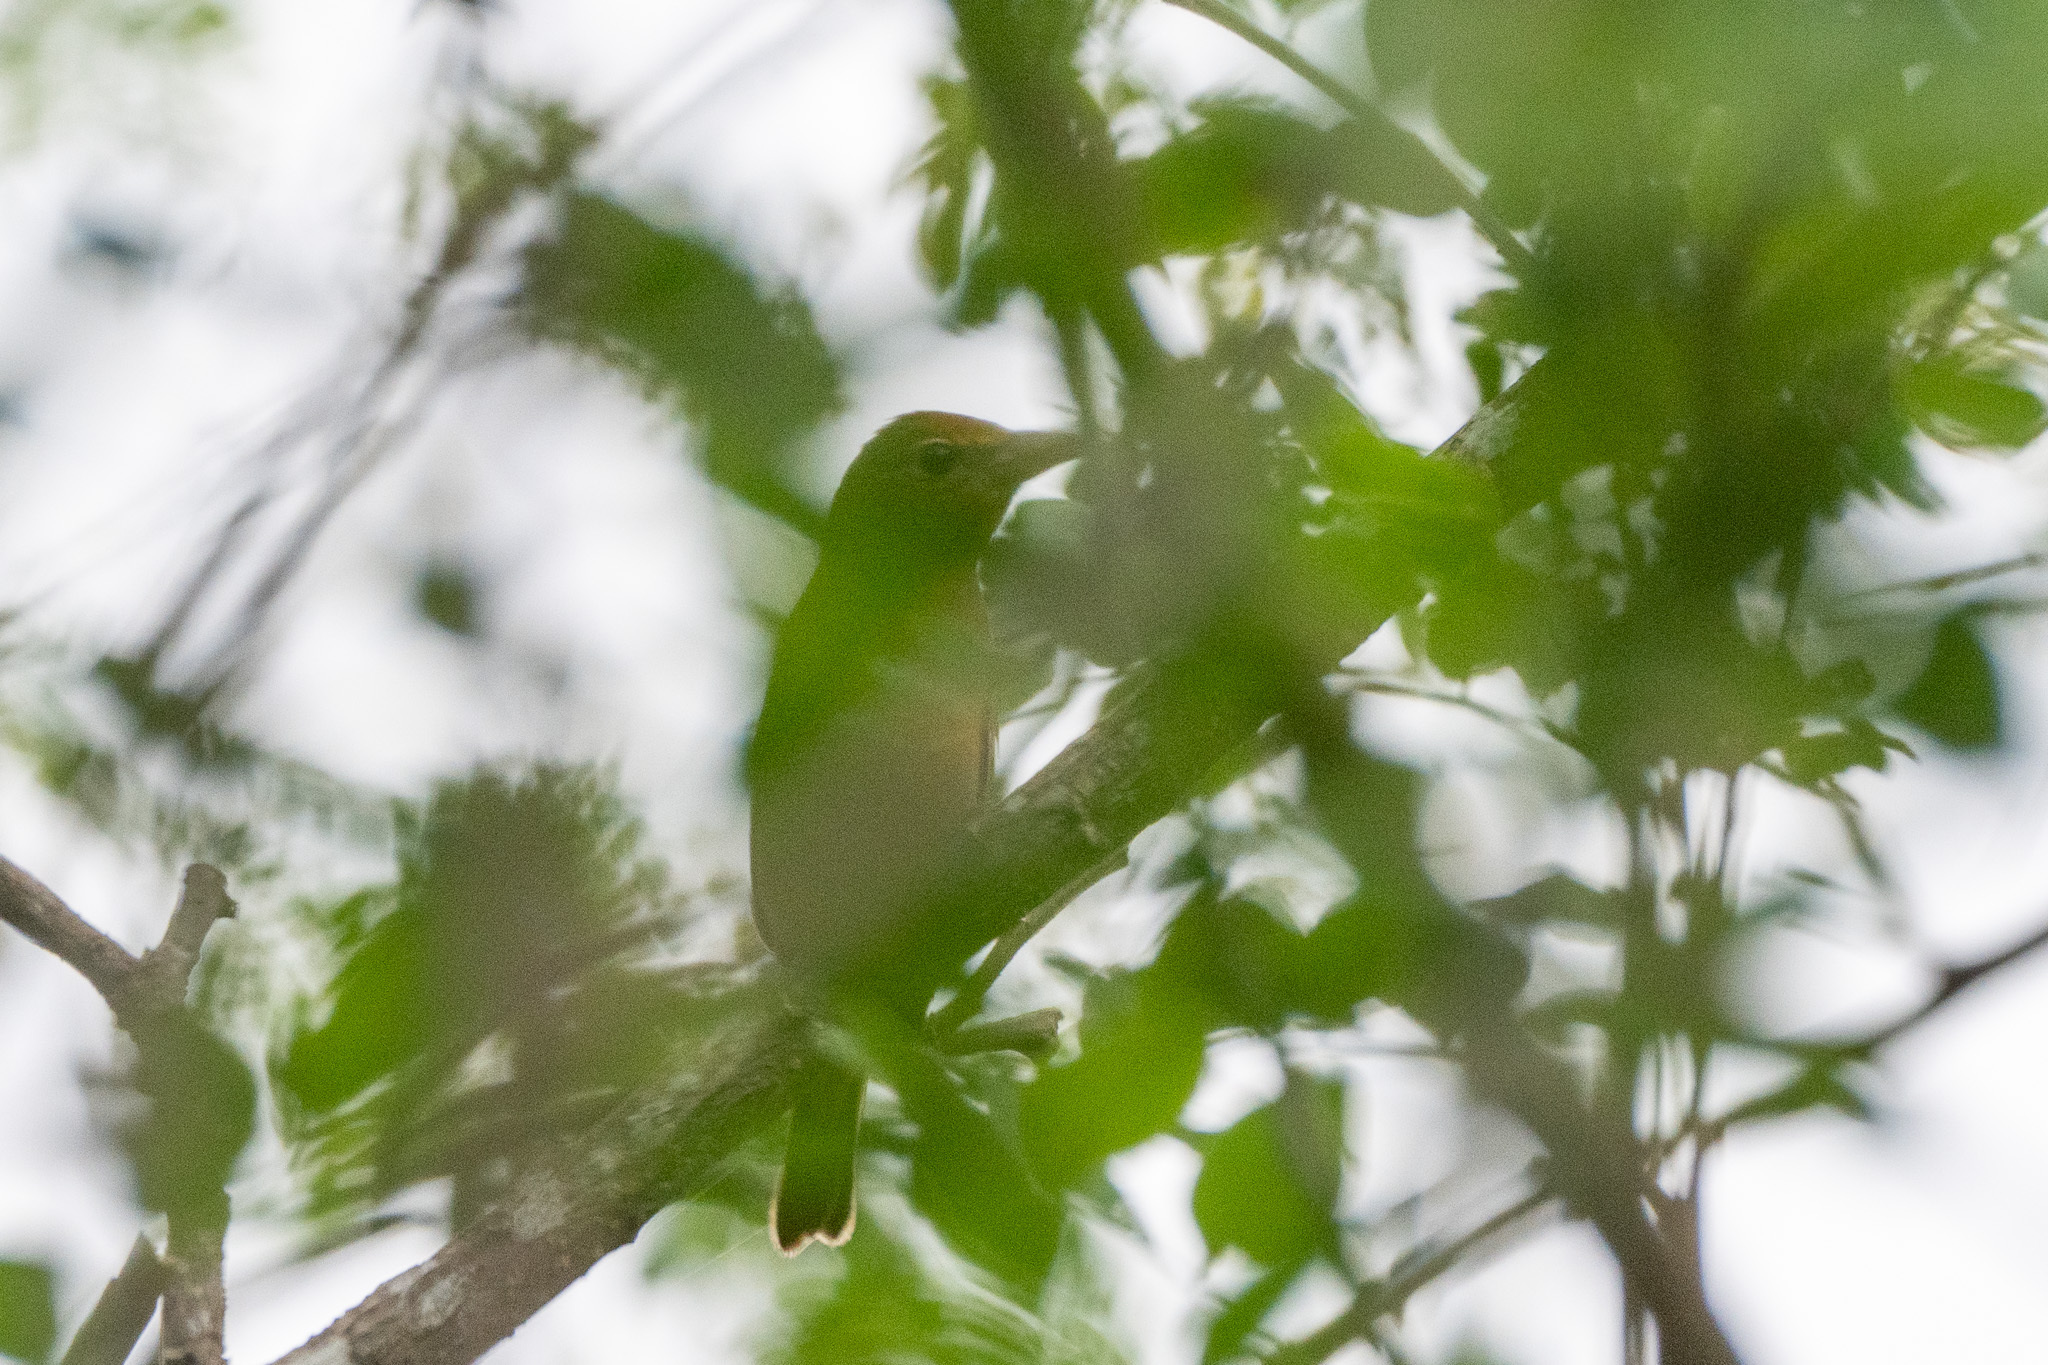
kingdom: Animalia
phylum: Chordata
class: Aves
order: Passeriformes
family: Cardinalidae
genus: Piranga
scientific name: Piranga rubra
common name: Summer tanager
